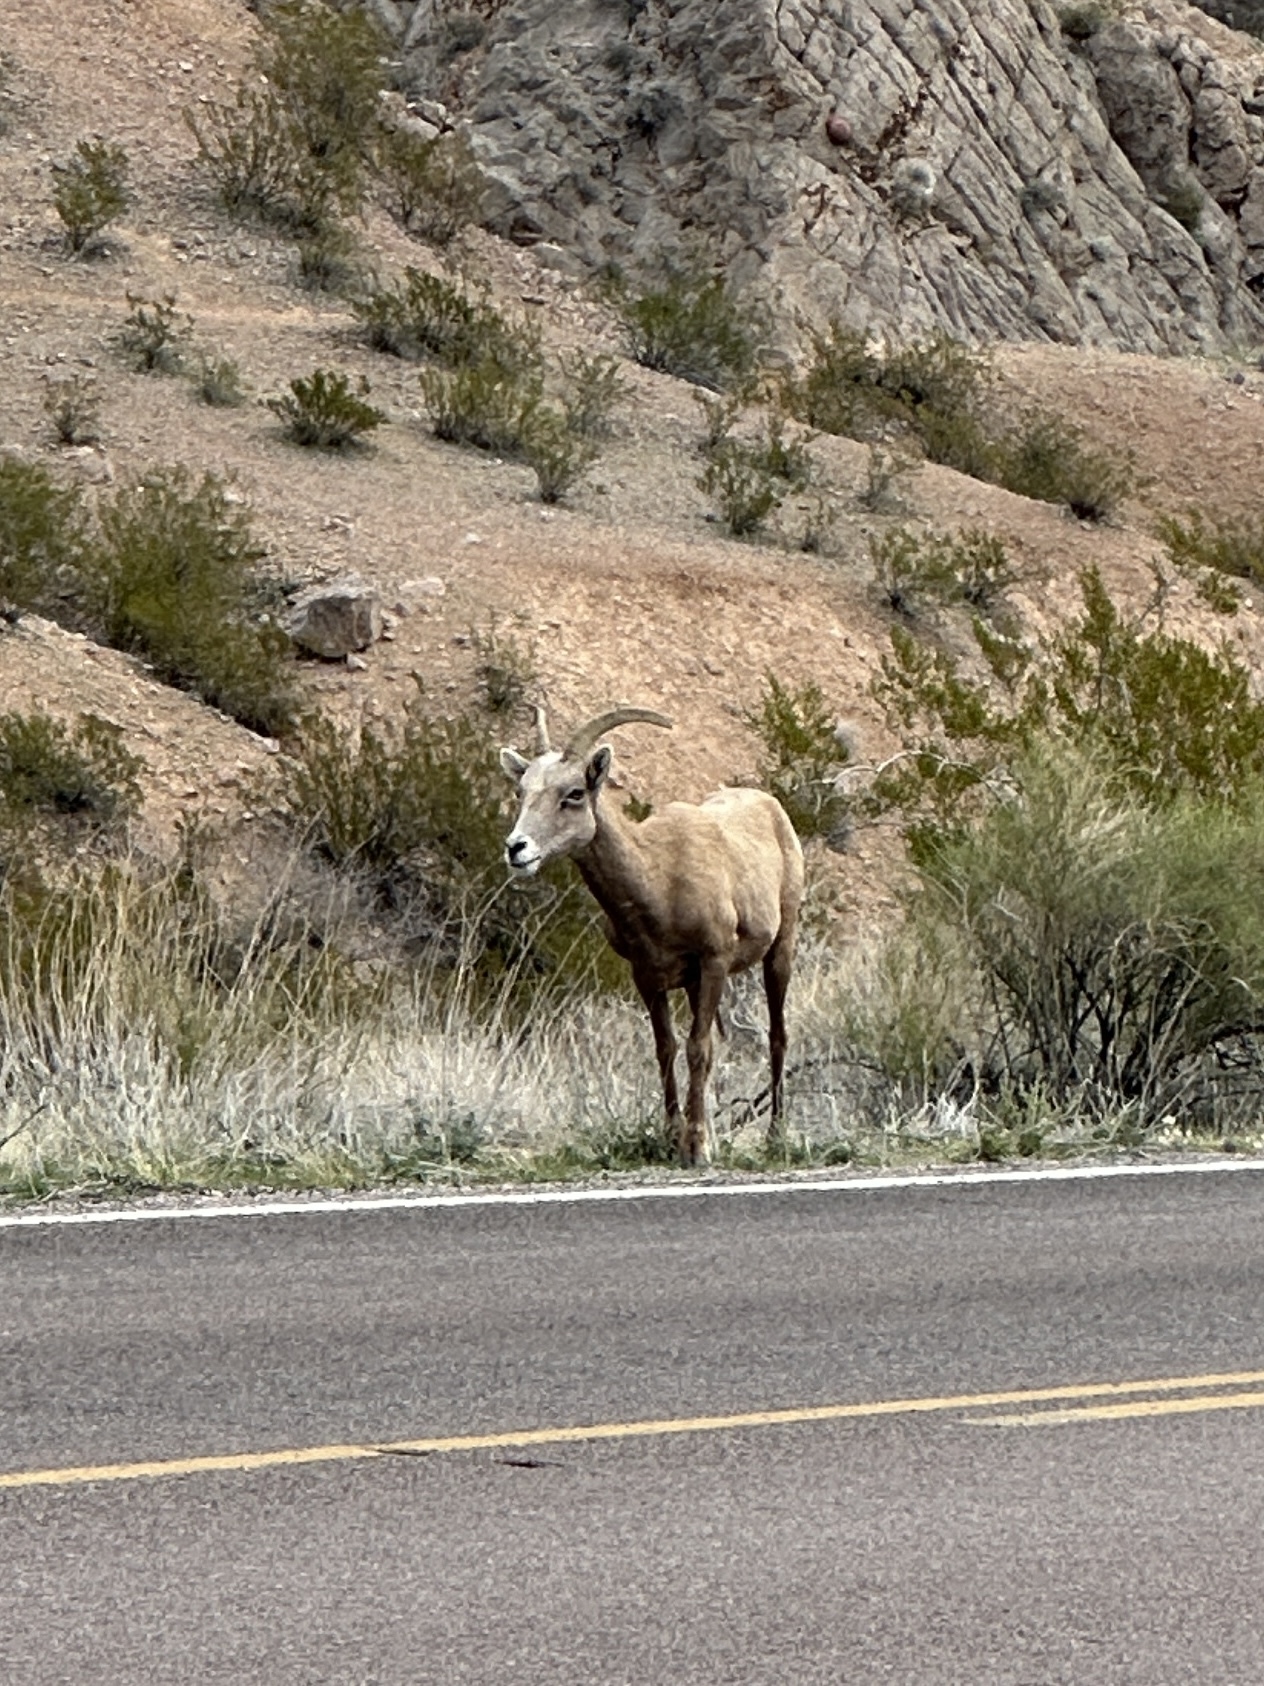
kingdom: Animalia
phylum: Chordata
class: Mammalia
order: Artiodactyla
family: Bovidae
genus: Ovis
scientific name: Ovis canadensis
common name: Bighorn sheep
